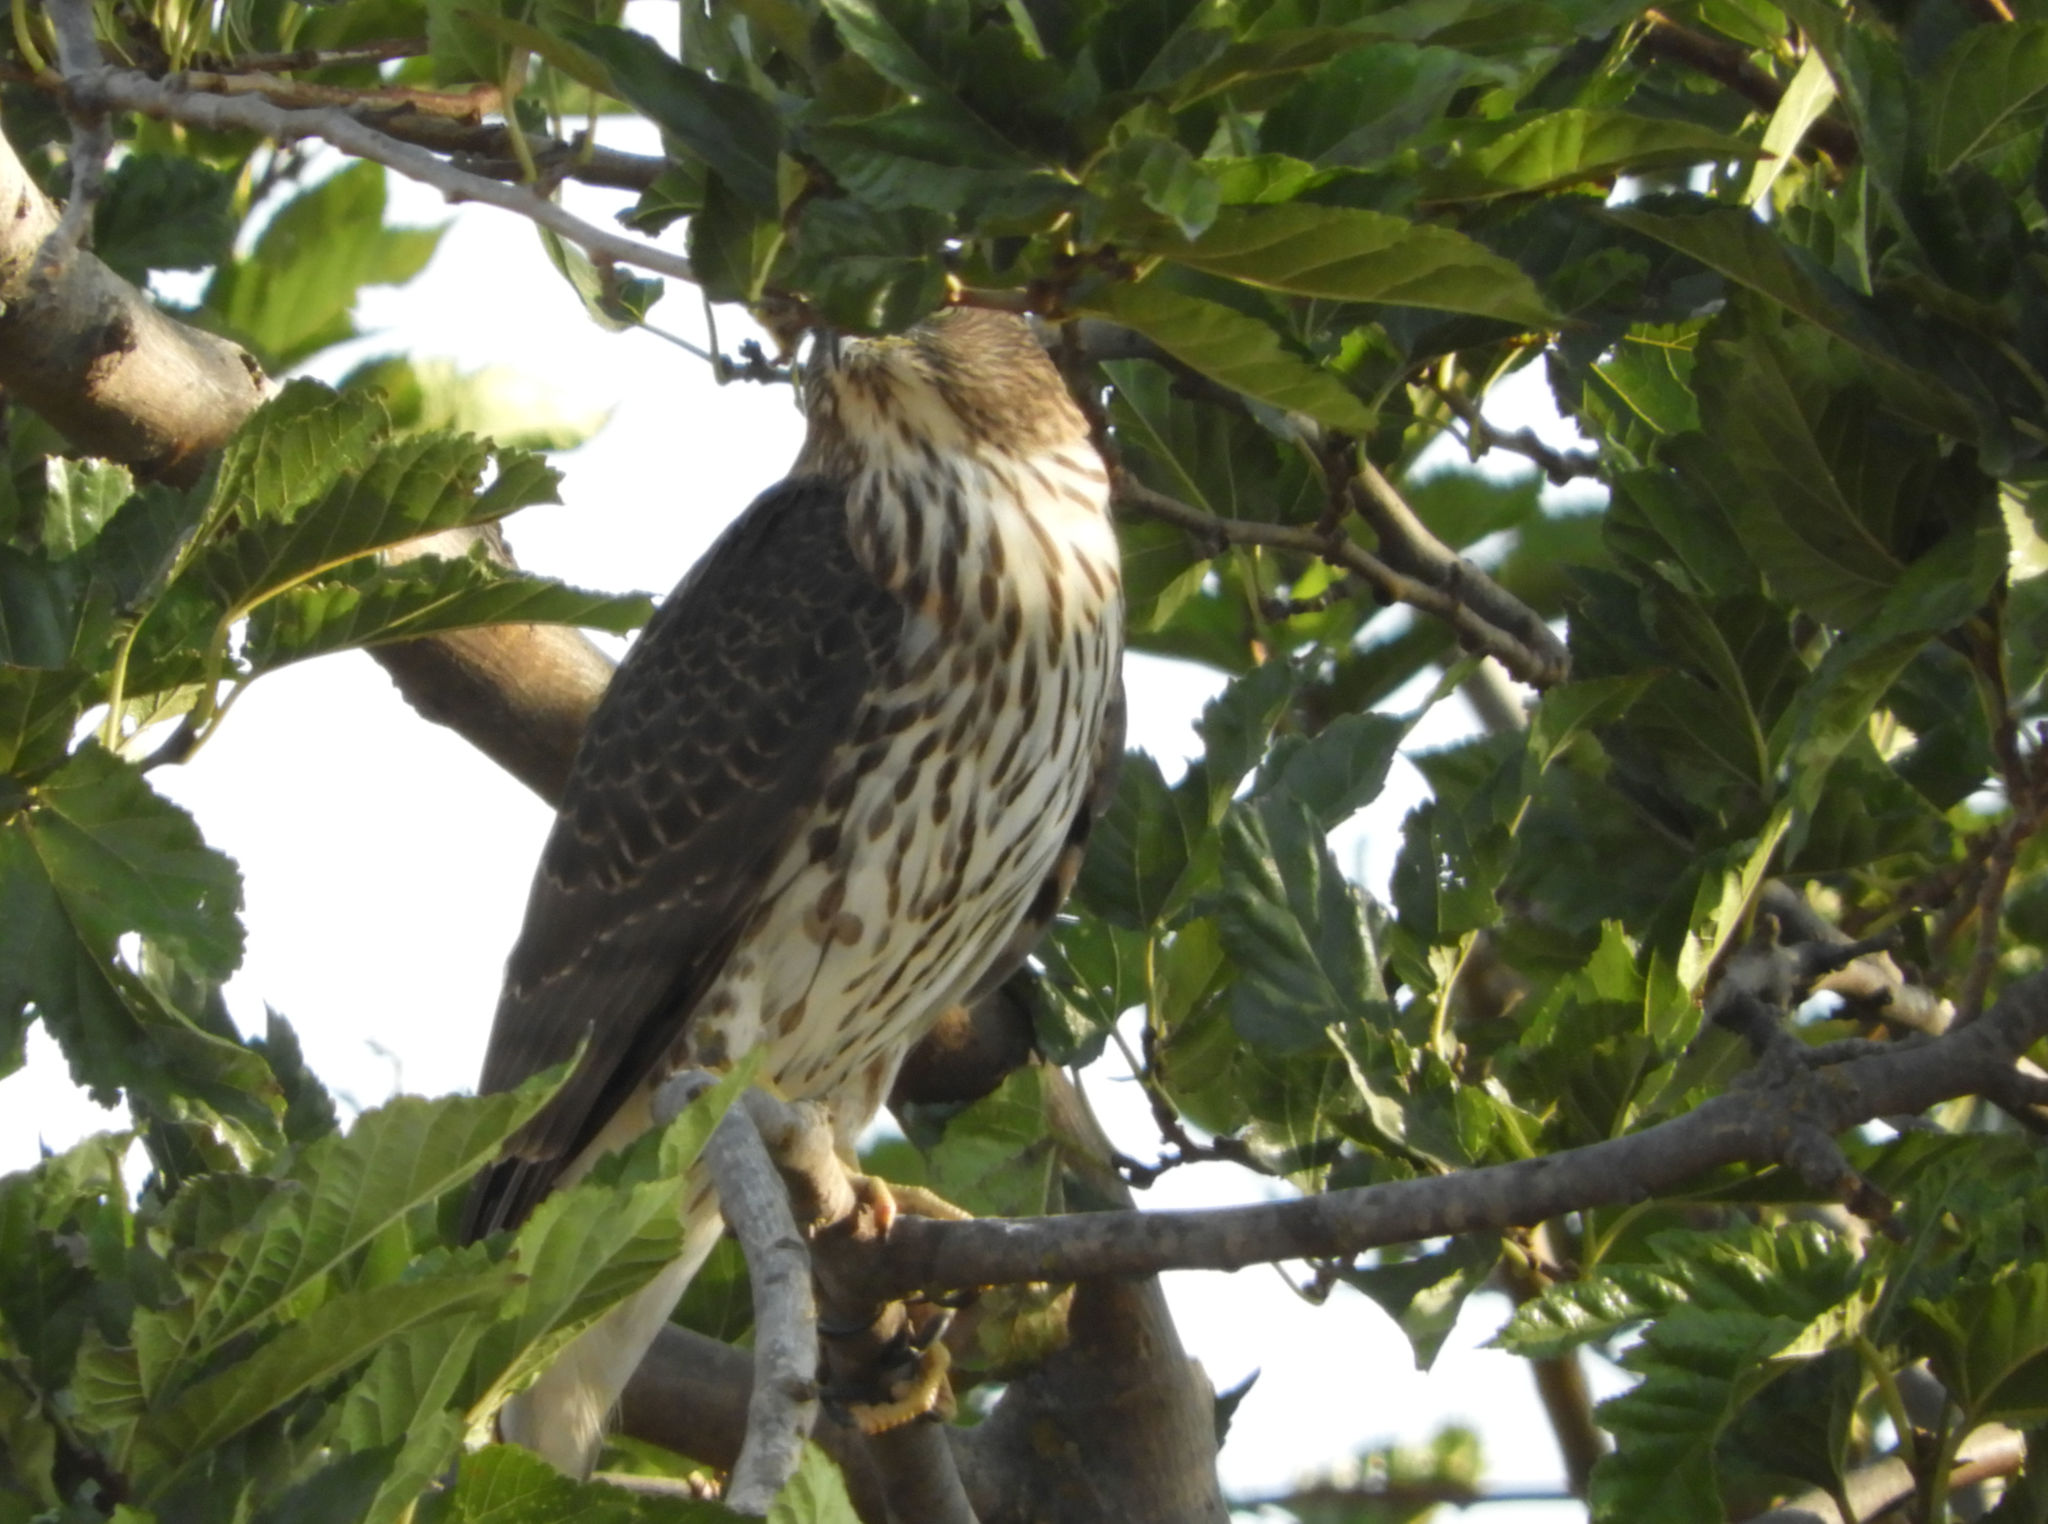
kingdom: Animalia
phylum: Chordata
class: Aves
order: Accipitriformes
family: Accipitridae
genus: Accipiter
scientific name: Accipiter cooperii
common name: Cooper's hawk
